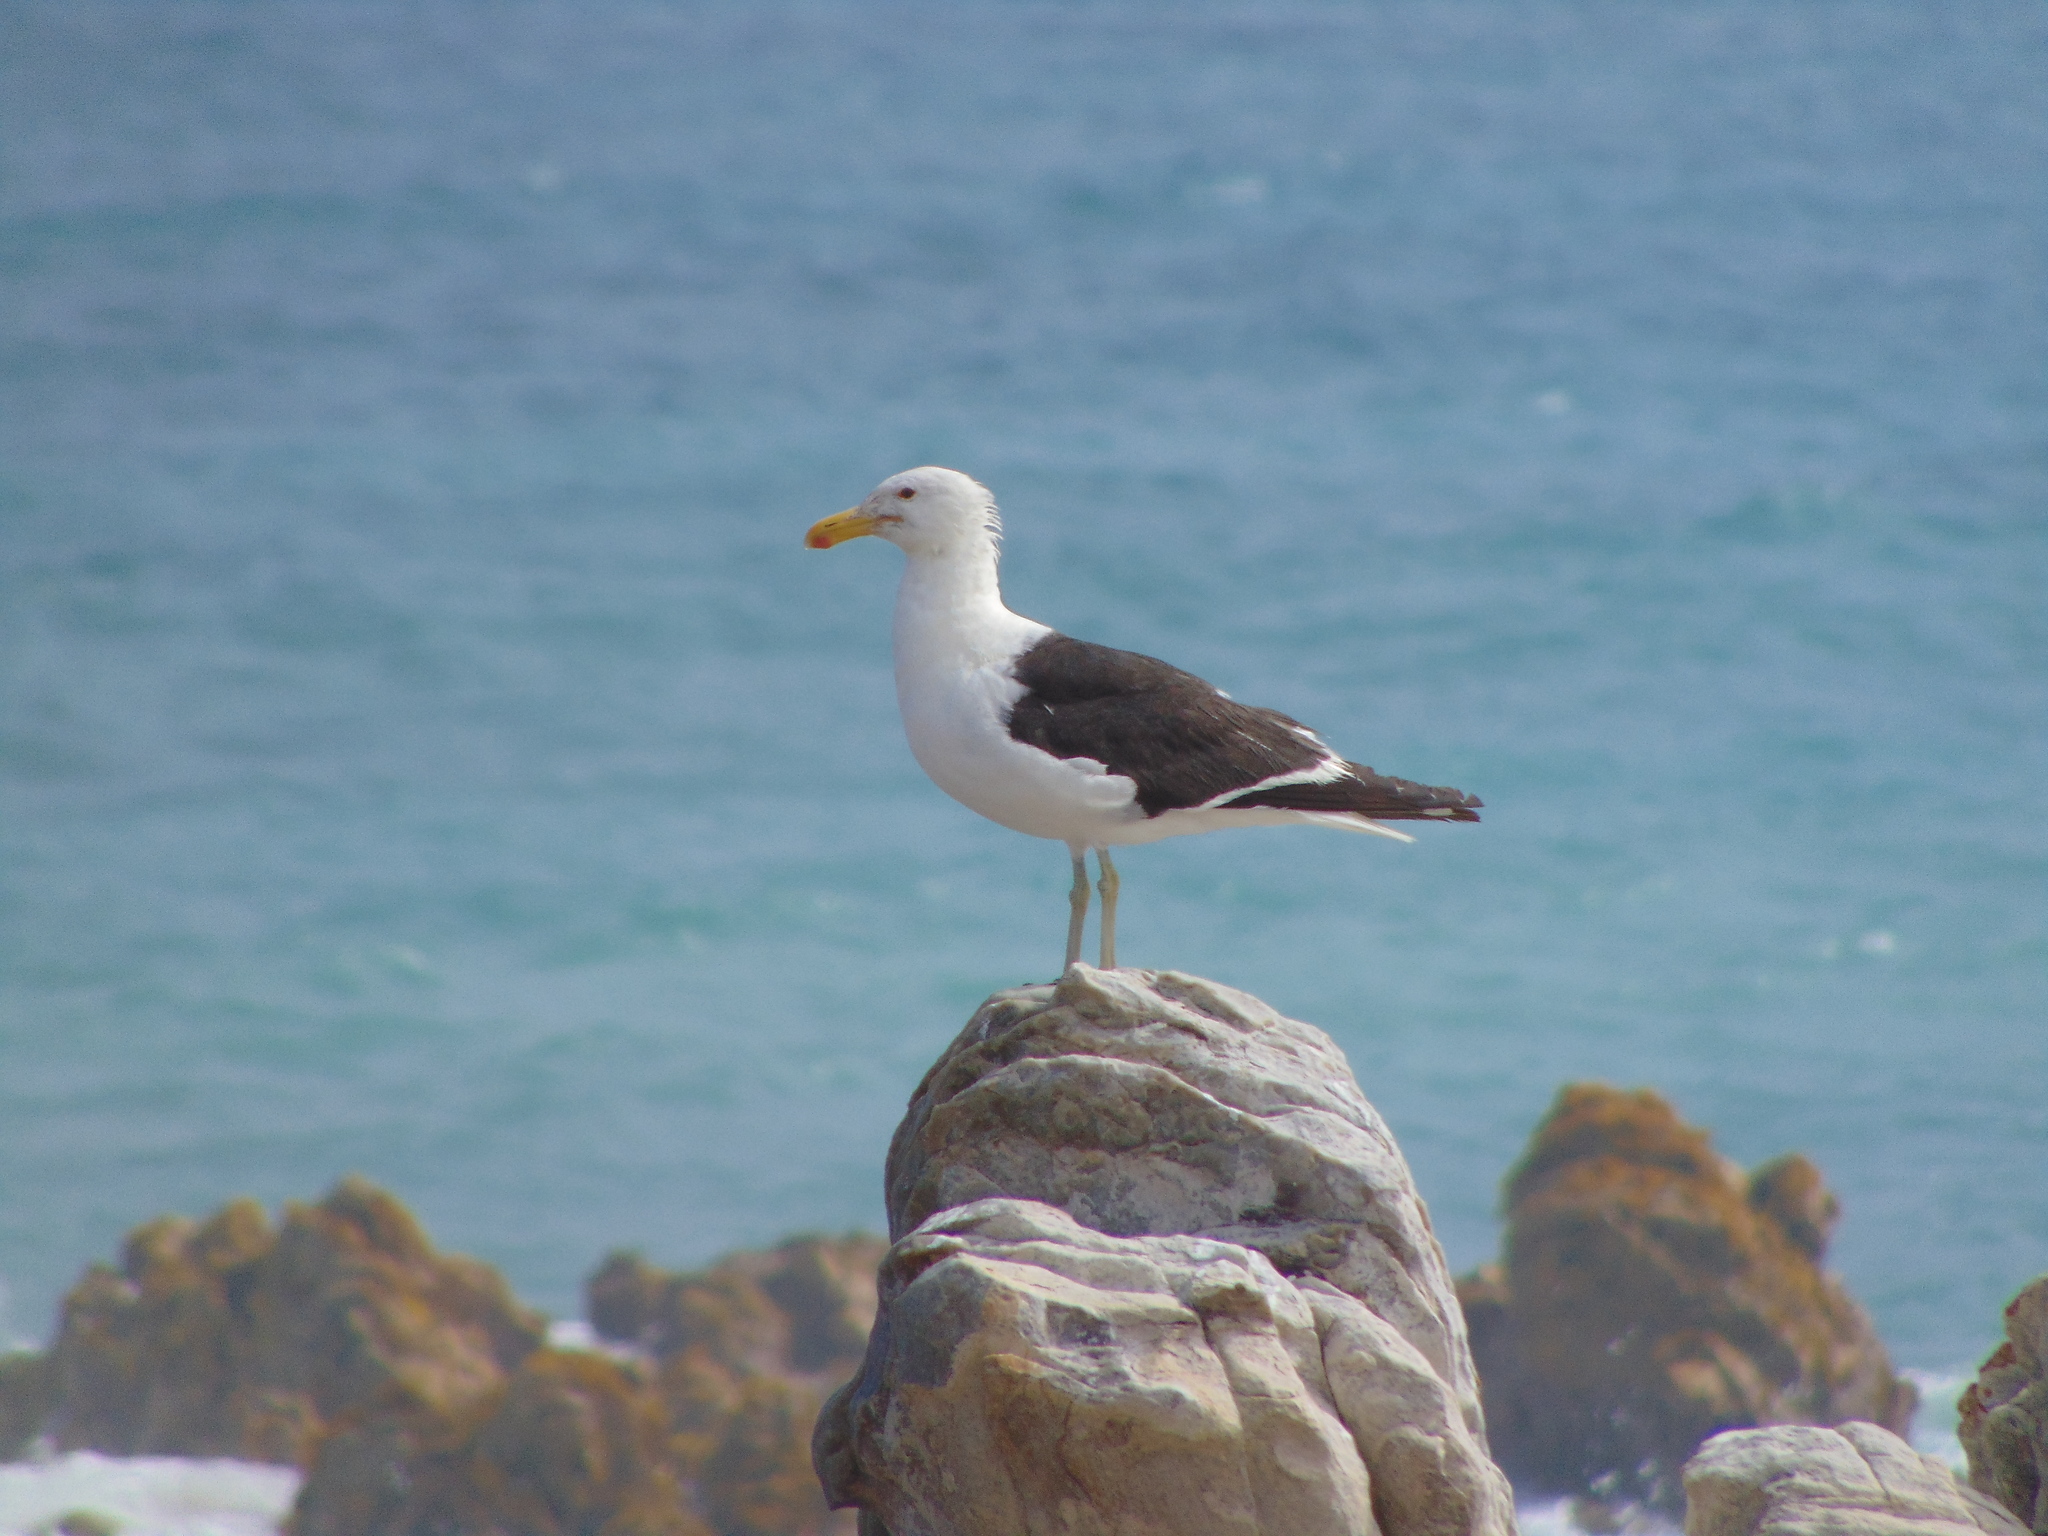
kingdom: Animalia
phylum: Chordata
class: Aves
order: Charadriiformes
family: Laridae
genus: Larus
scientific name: Larus dominicanus
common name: Kelp gull
